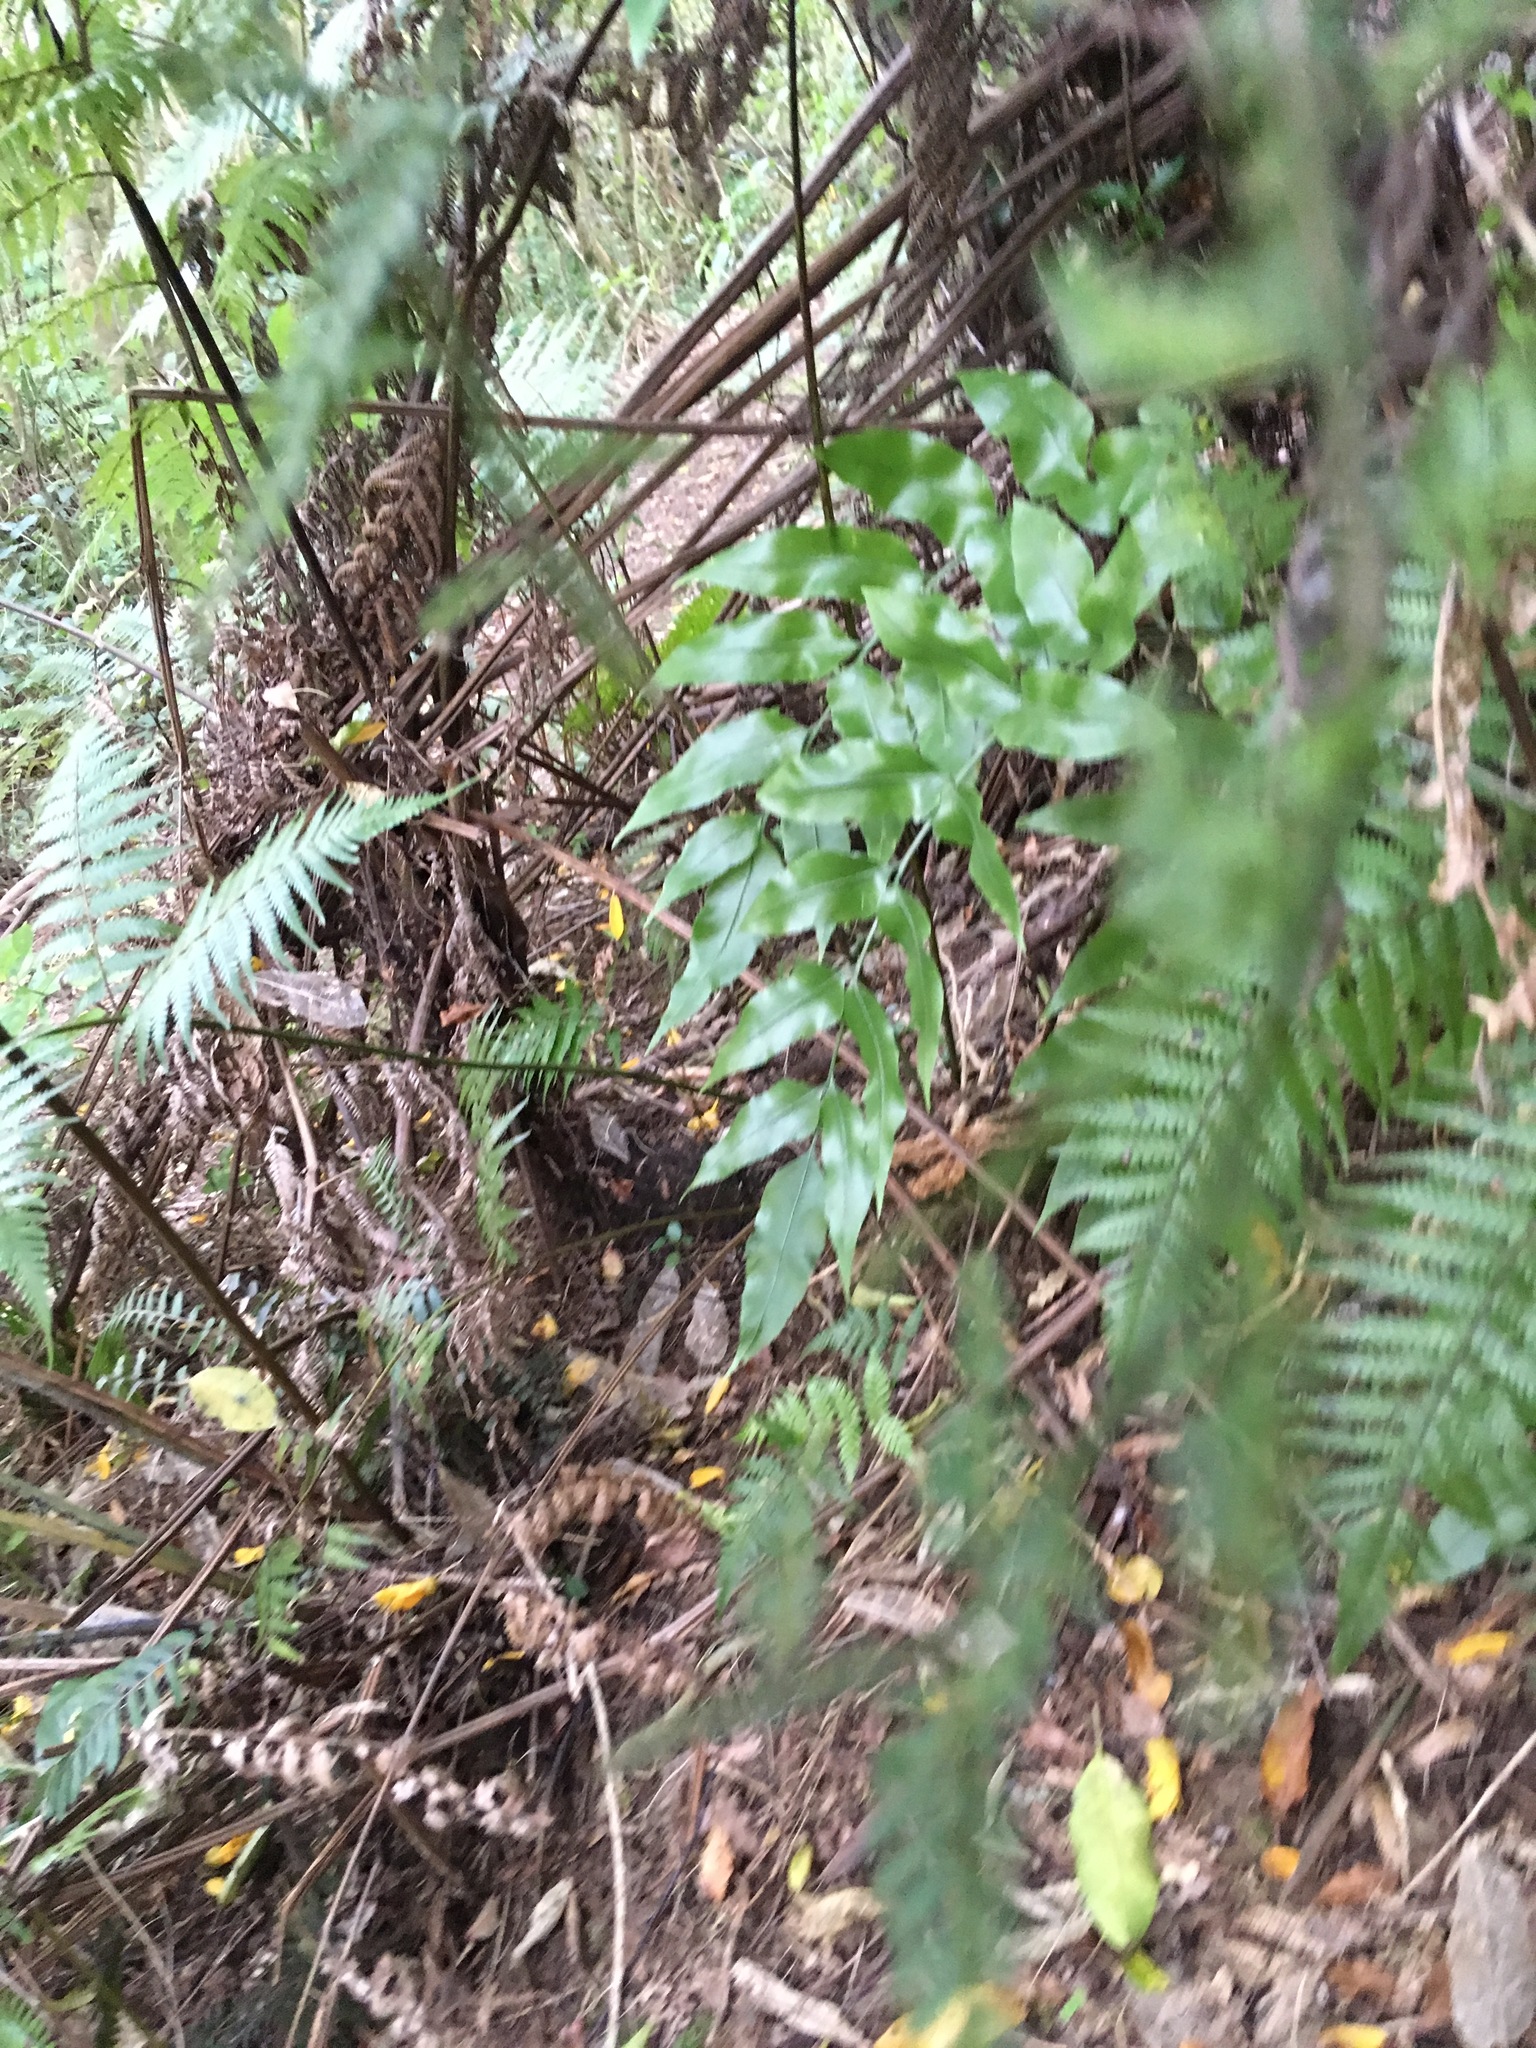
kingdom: Plantae
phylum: Tracheophyta
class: Polypodiopsida
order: Polypodiales
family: Aspleniaceae
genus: Asplenium
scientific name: Asplenium oblongifolium
